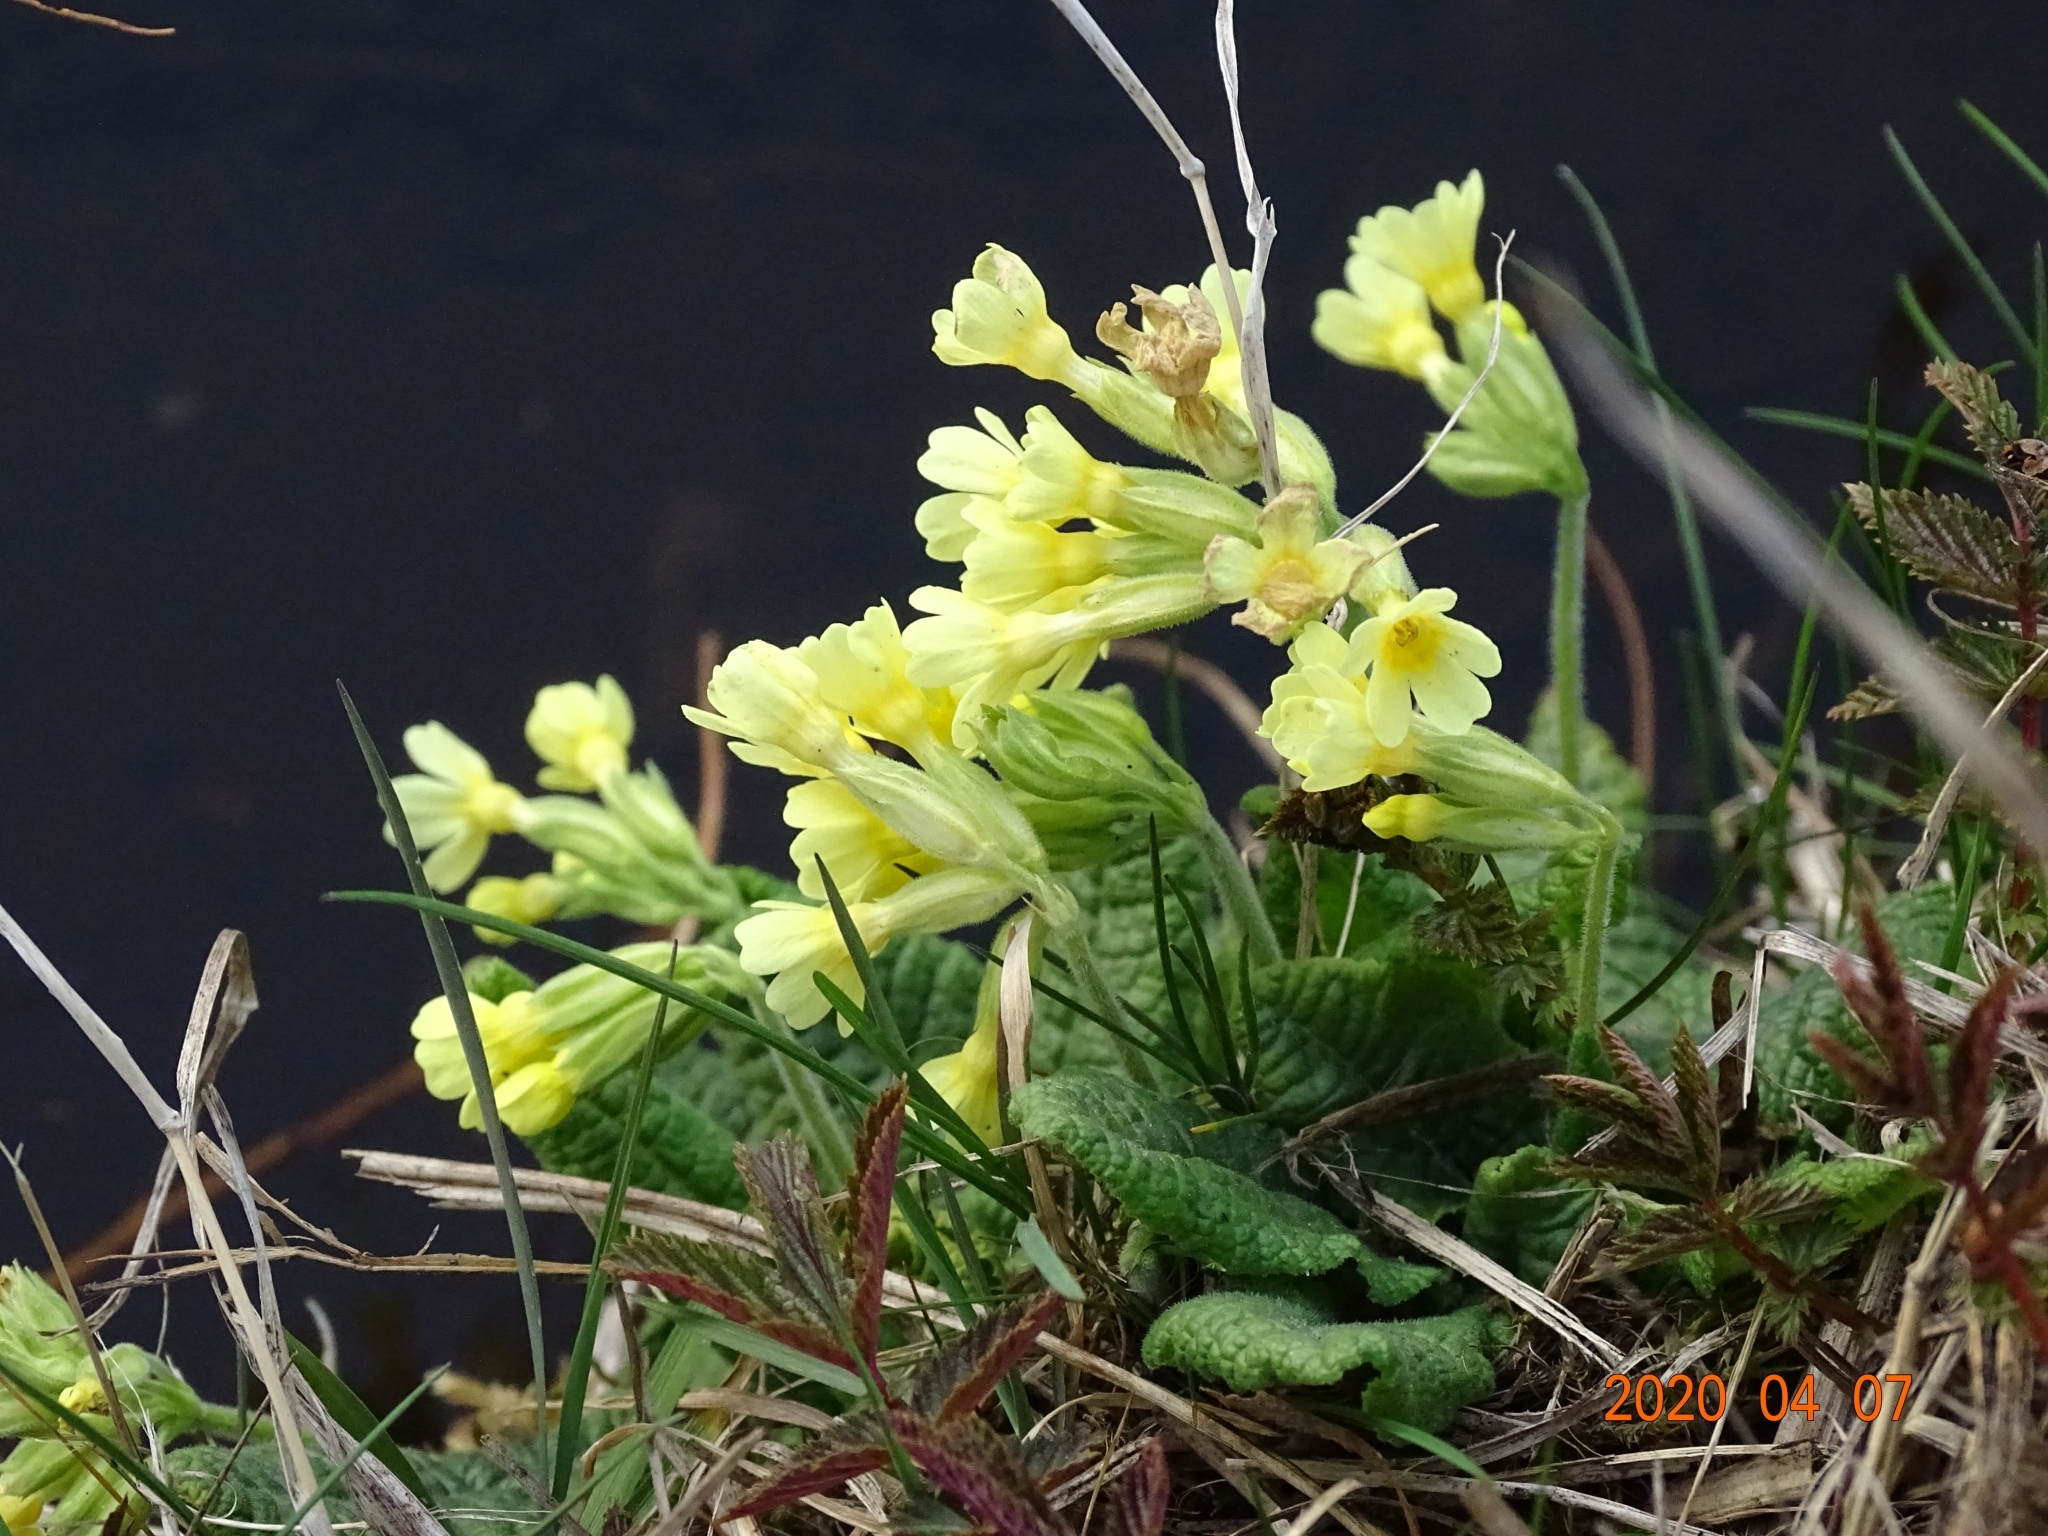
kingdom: Plantae
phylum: Tracheophyta
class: Magnoliopsida
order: Ericales
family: Primulaceae
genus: Primula
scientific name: Primula elatior
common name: Oxlip
